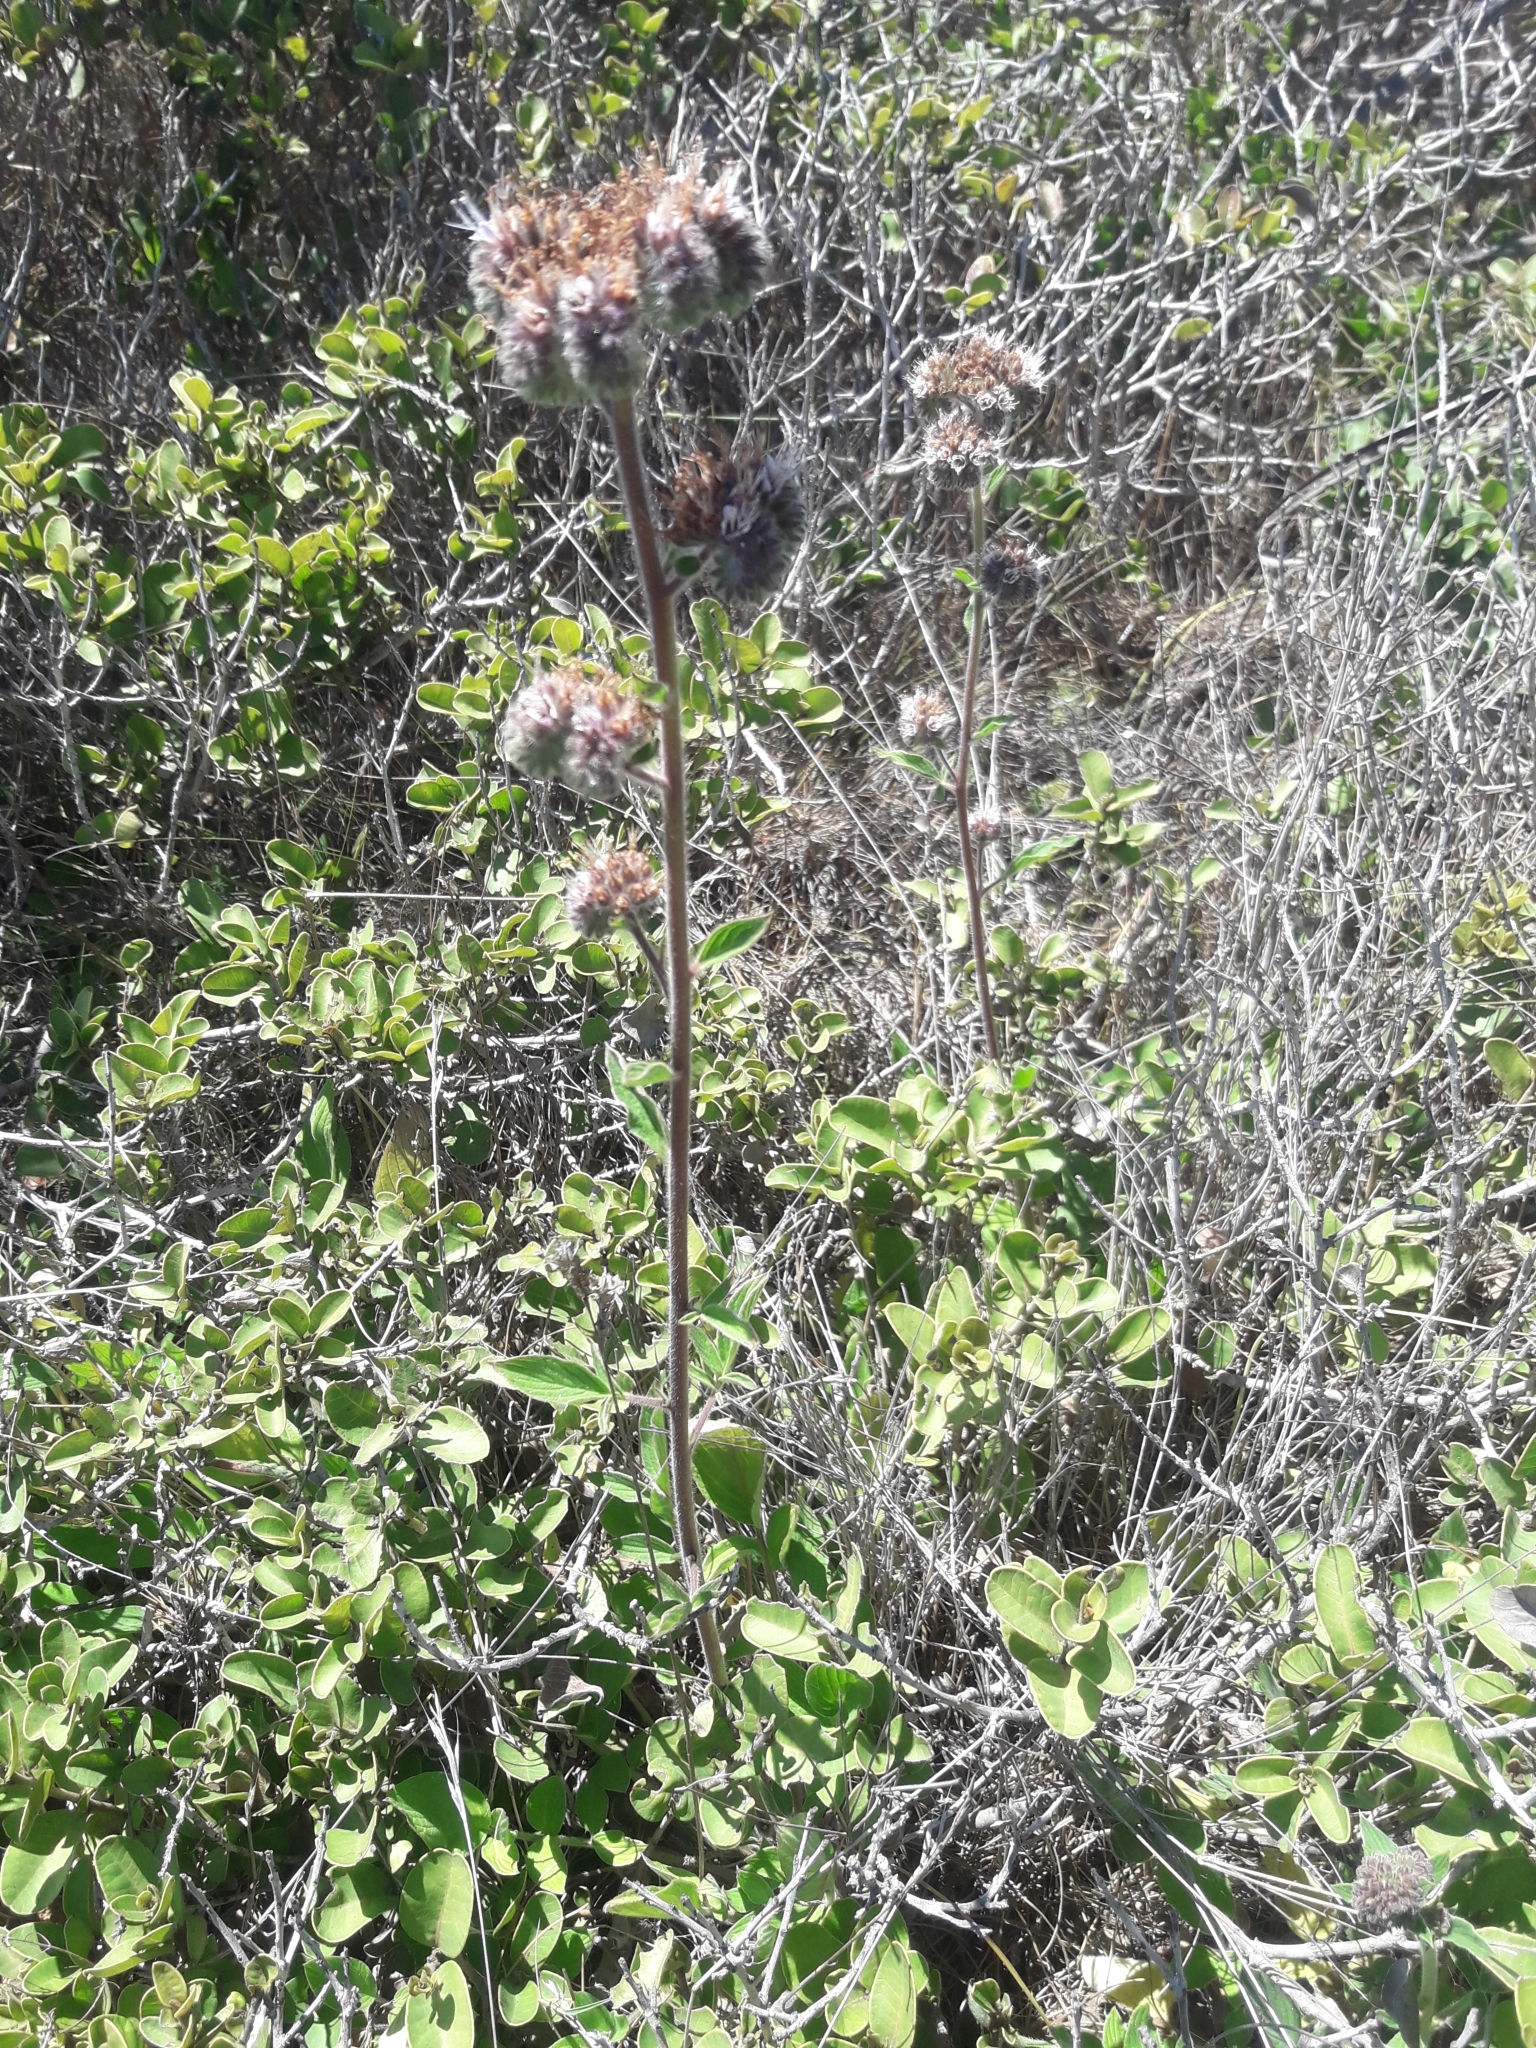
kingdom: Plantae
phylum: Tracheophyta
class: Magnoliopsida
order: Boraginales
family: Hydrophyllaceae
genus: Phacelia
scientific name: Phacelia secunda
